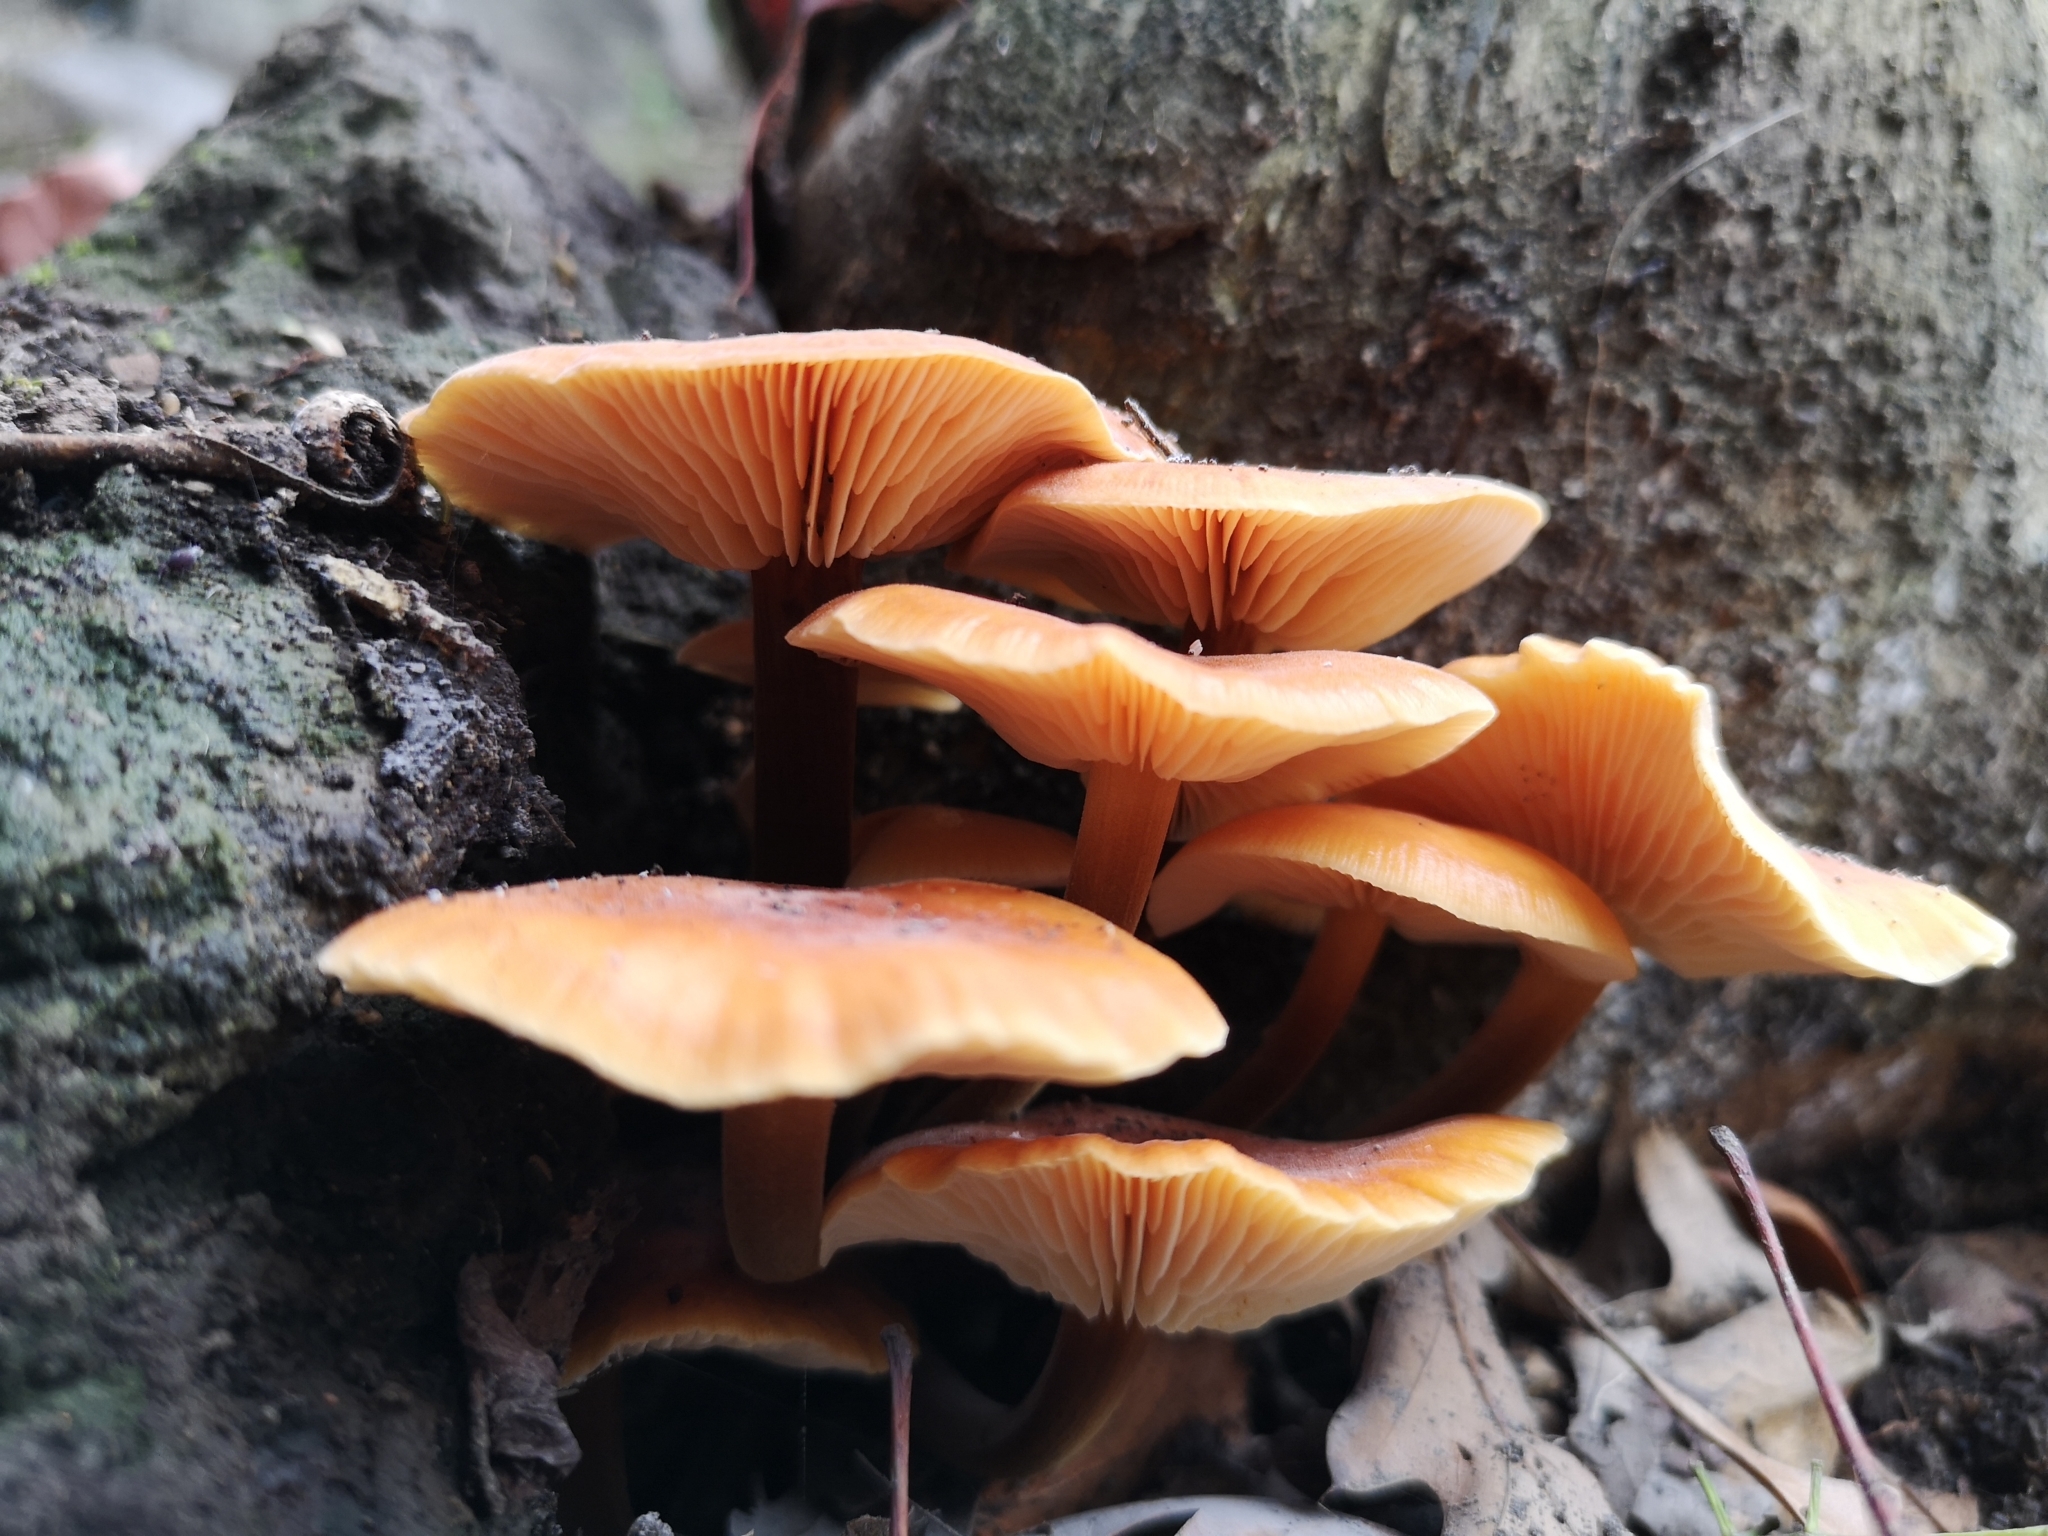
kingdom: Fungi
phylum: Basidiomycota
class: Agaricomycetes
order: Agaricales
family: Physalacriaceae
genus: Flammulina
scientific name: Flammulina velutipes
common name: Velvet shank
